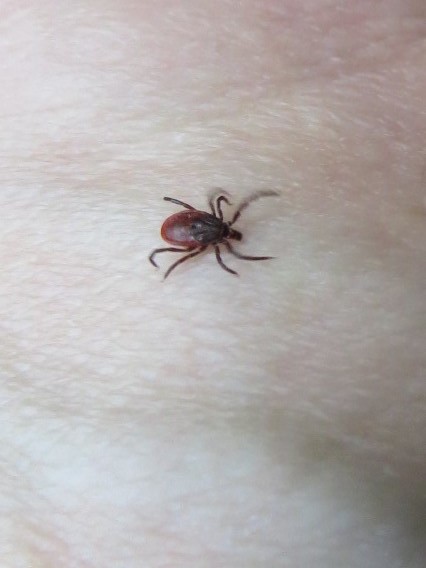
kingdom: Animalia
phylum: Arthropoda
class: Arachnida
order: Ixodida
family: Ixodidae
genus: Ixodes
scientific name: Ixodes pacificus
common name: California black-legged tick
